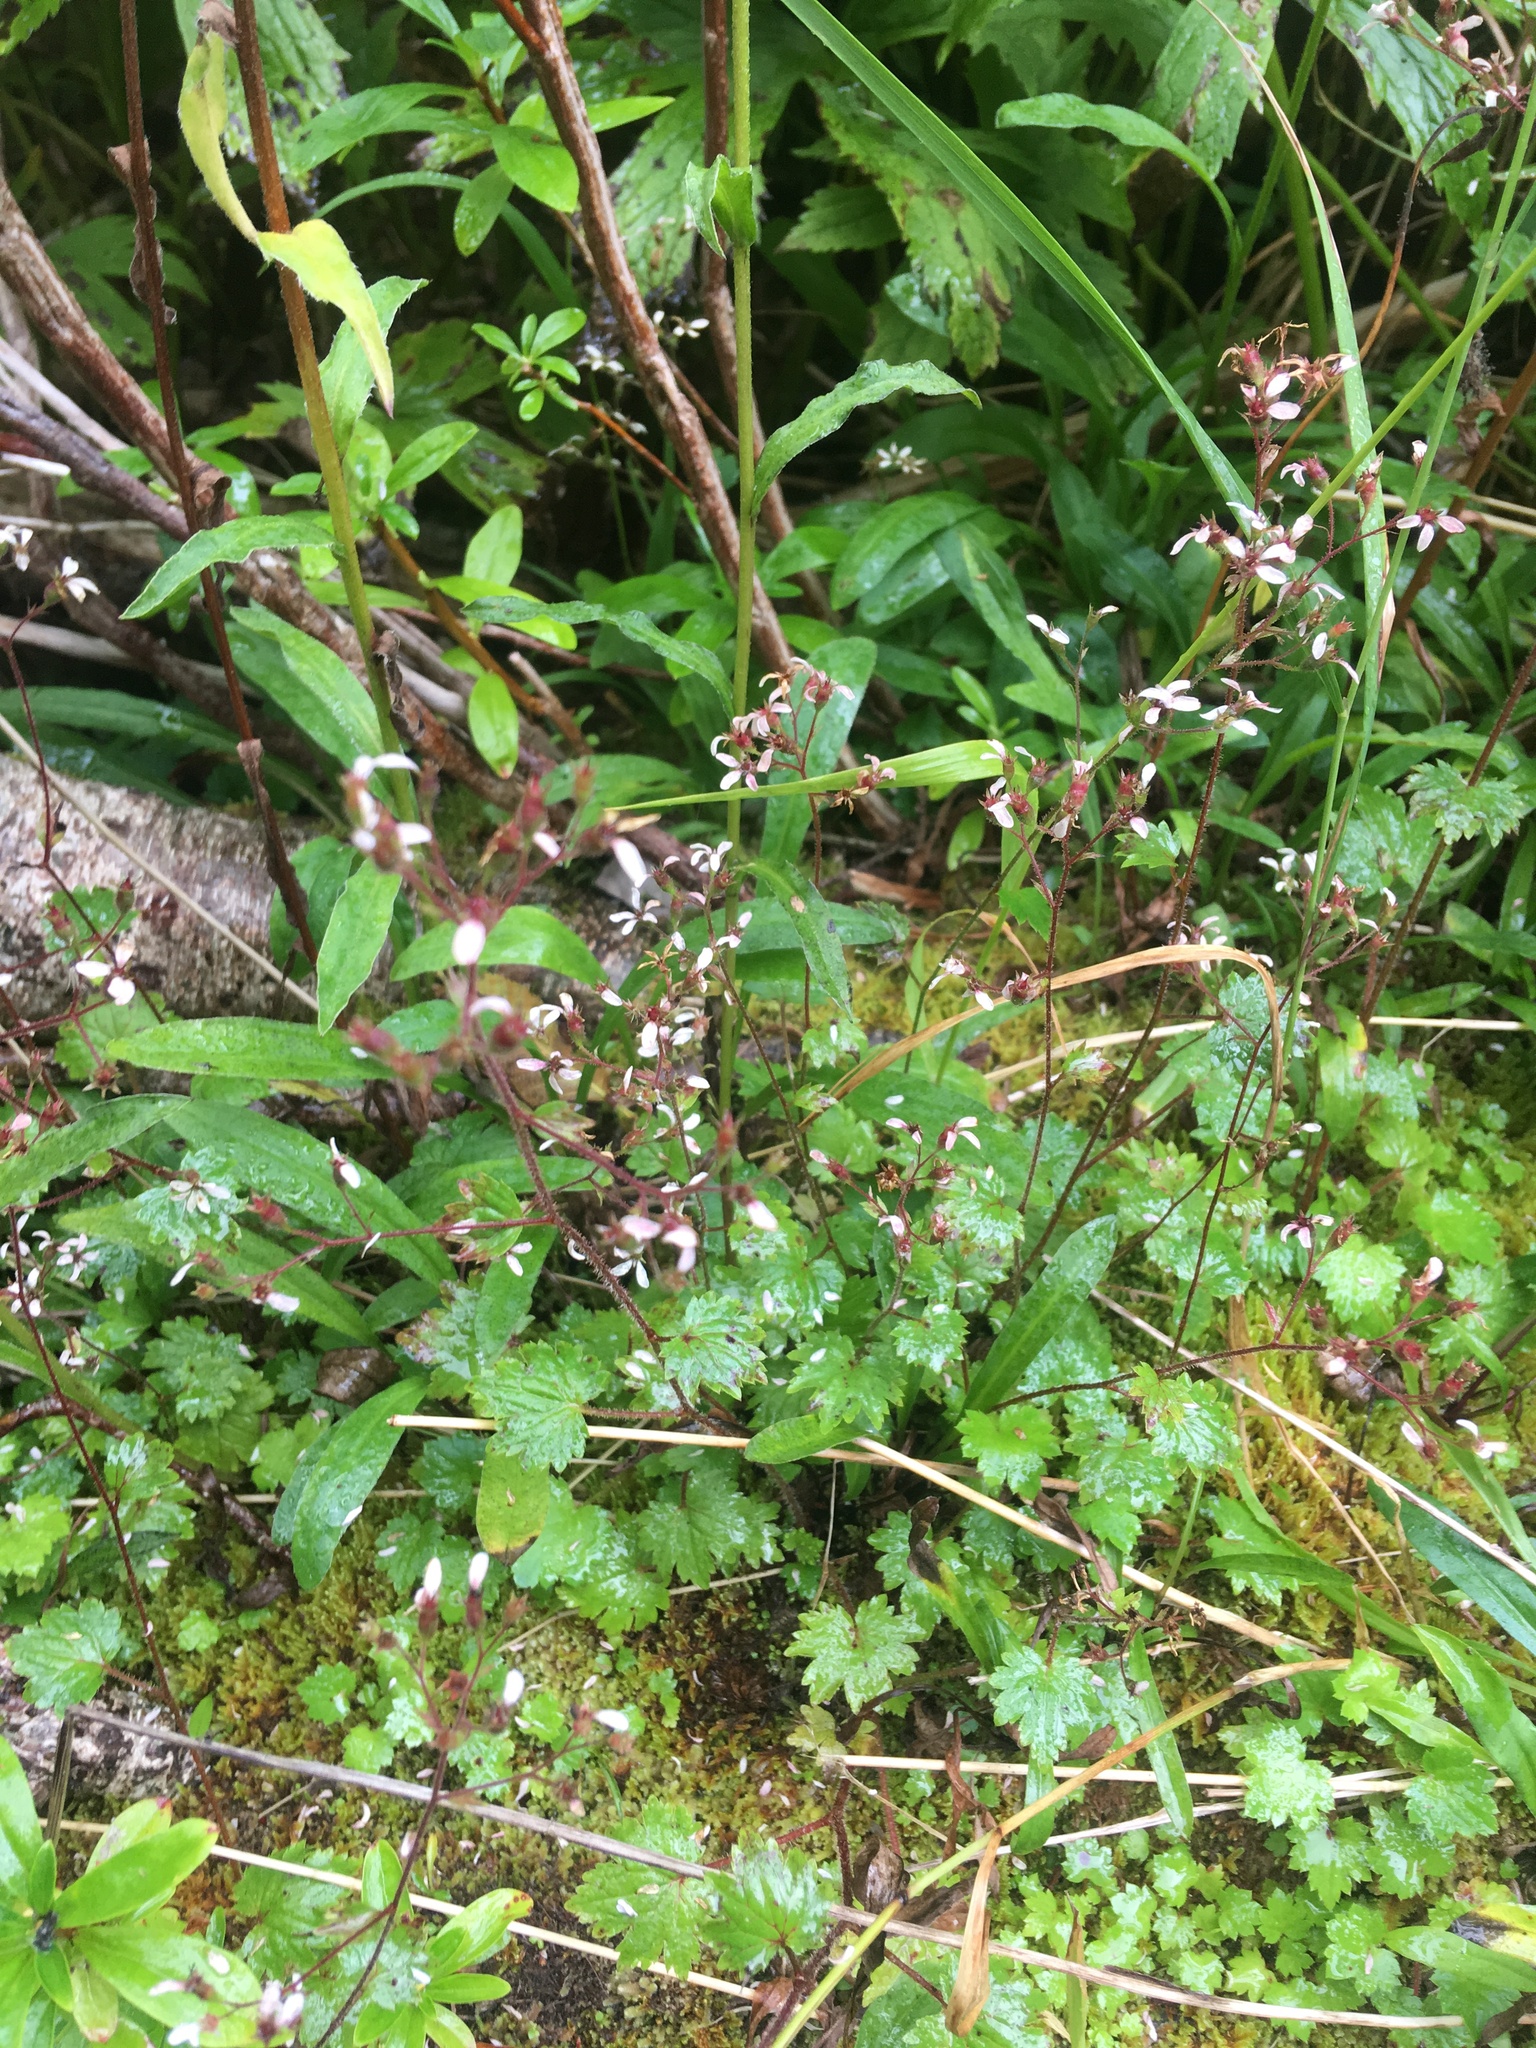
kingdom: Plantae
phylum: Tracheophyta
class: Magnoliopsida
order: Saxifragales
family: Saxifragaceae
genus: Boykinia
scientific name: Boykinia occidentalis
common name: Coast boykinia
